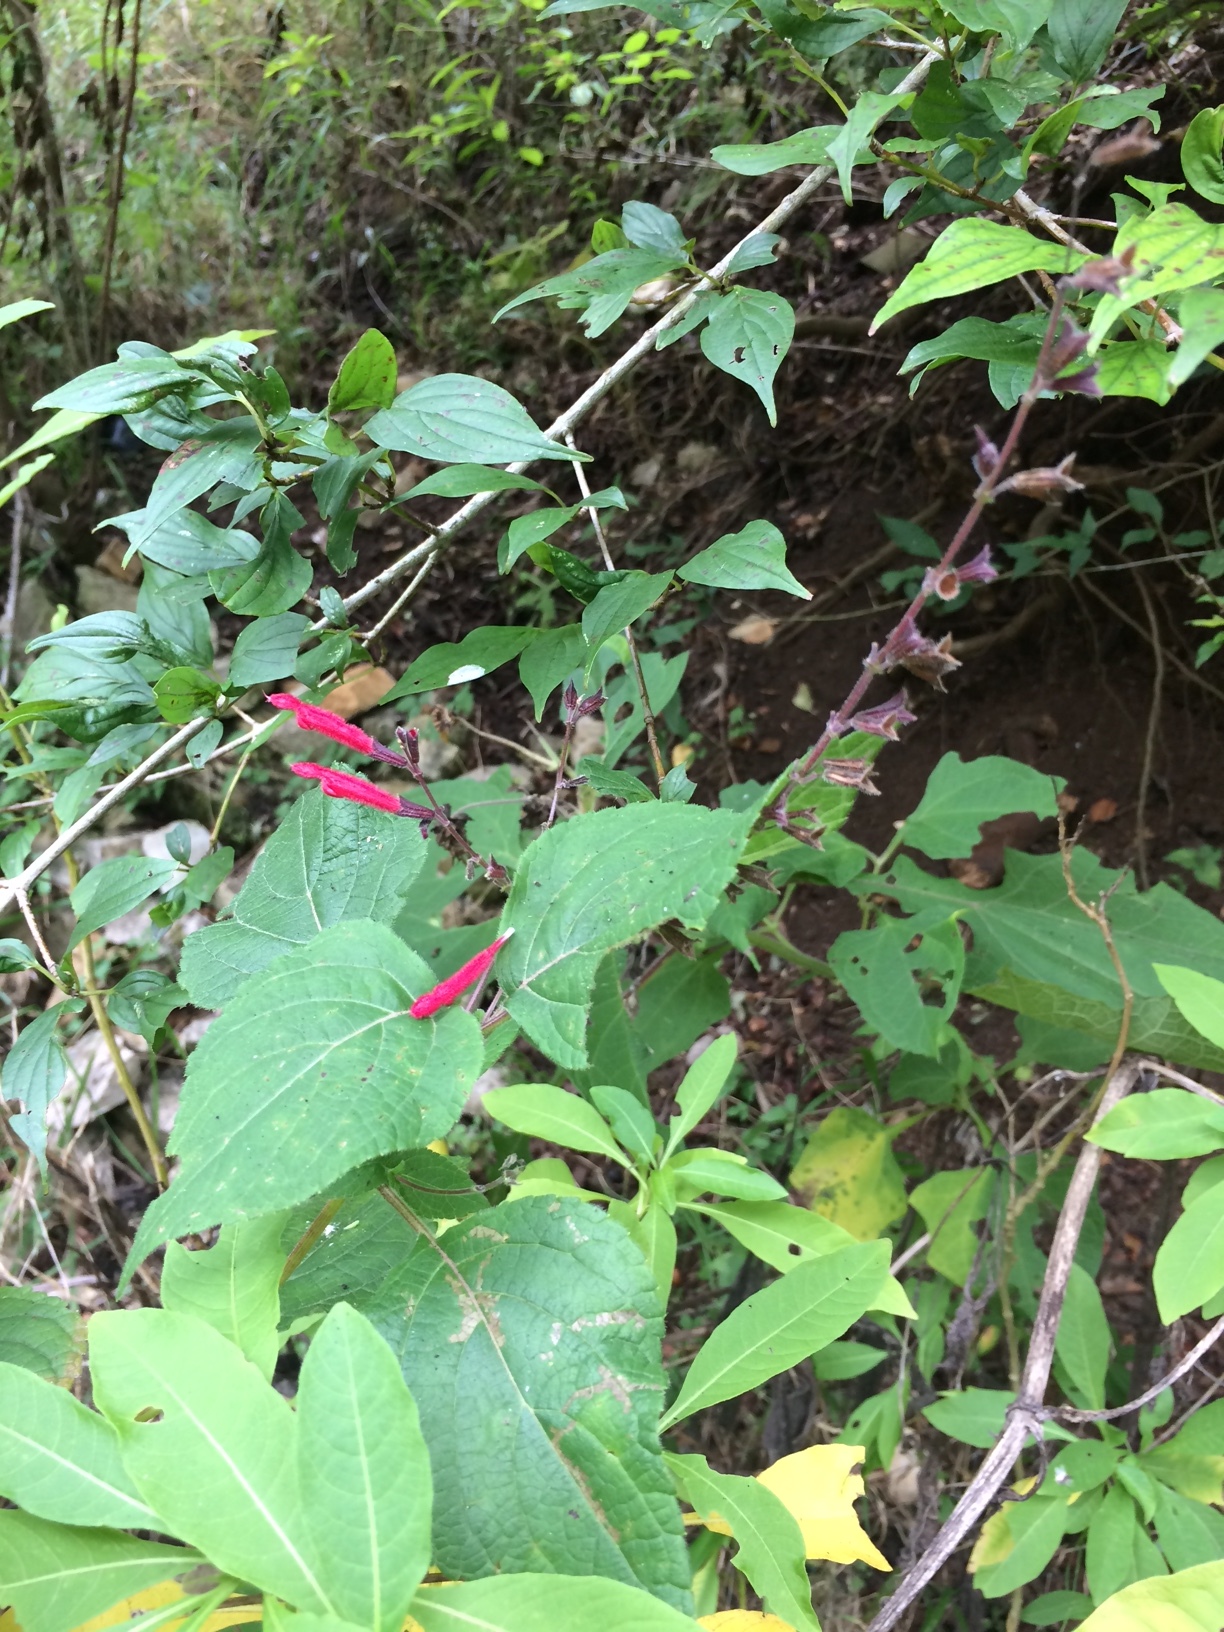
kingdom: Plantae
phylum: Tracheophyta
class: Magnoliopsida
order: Lamiales
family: Lamiaceae
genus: Salvia
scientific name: Salvia tubifera
